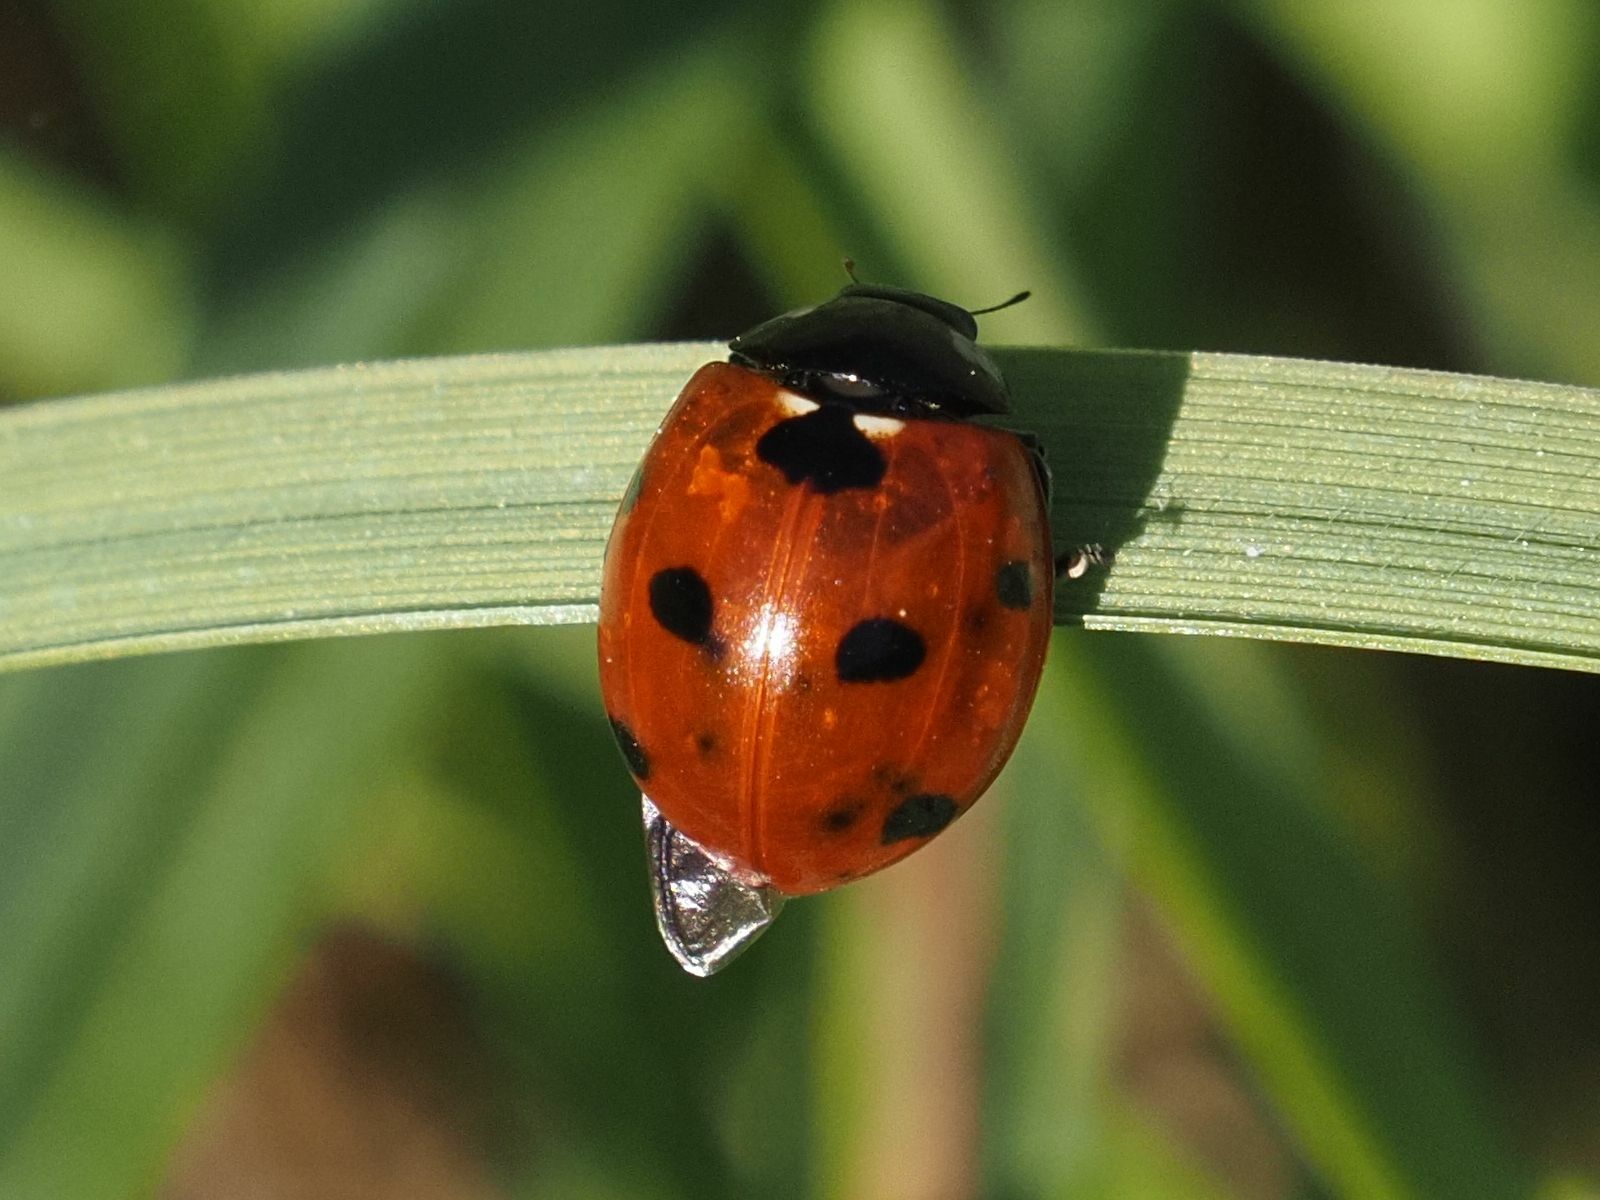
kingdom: Animalia
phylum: Arthropoda
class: Insecta
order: Coleoptera
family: Coccinellidae
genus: Coccinella
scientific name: Coccinella septempunctata
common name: Sevenspotted lady beetle
